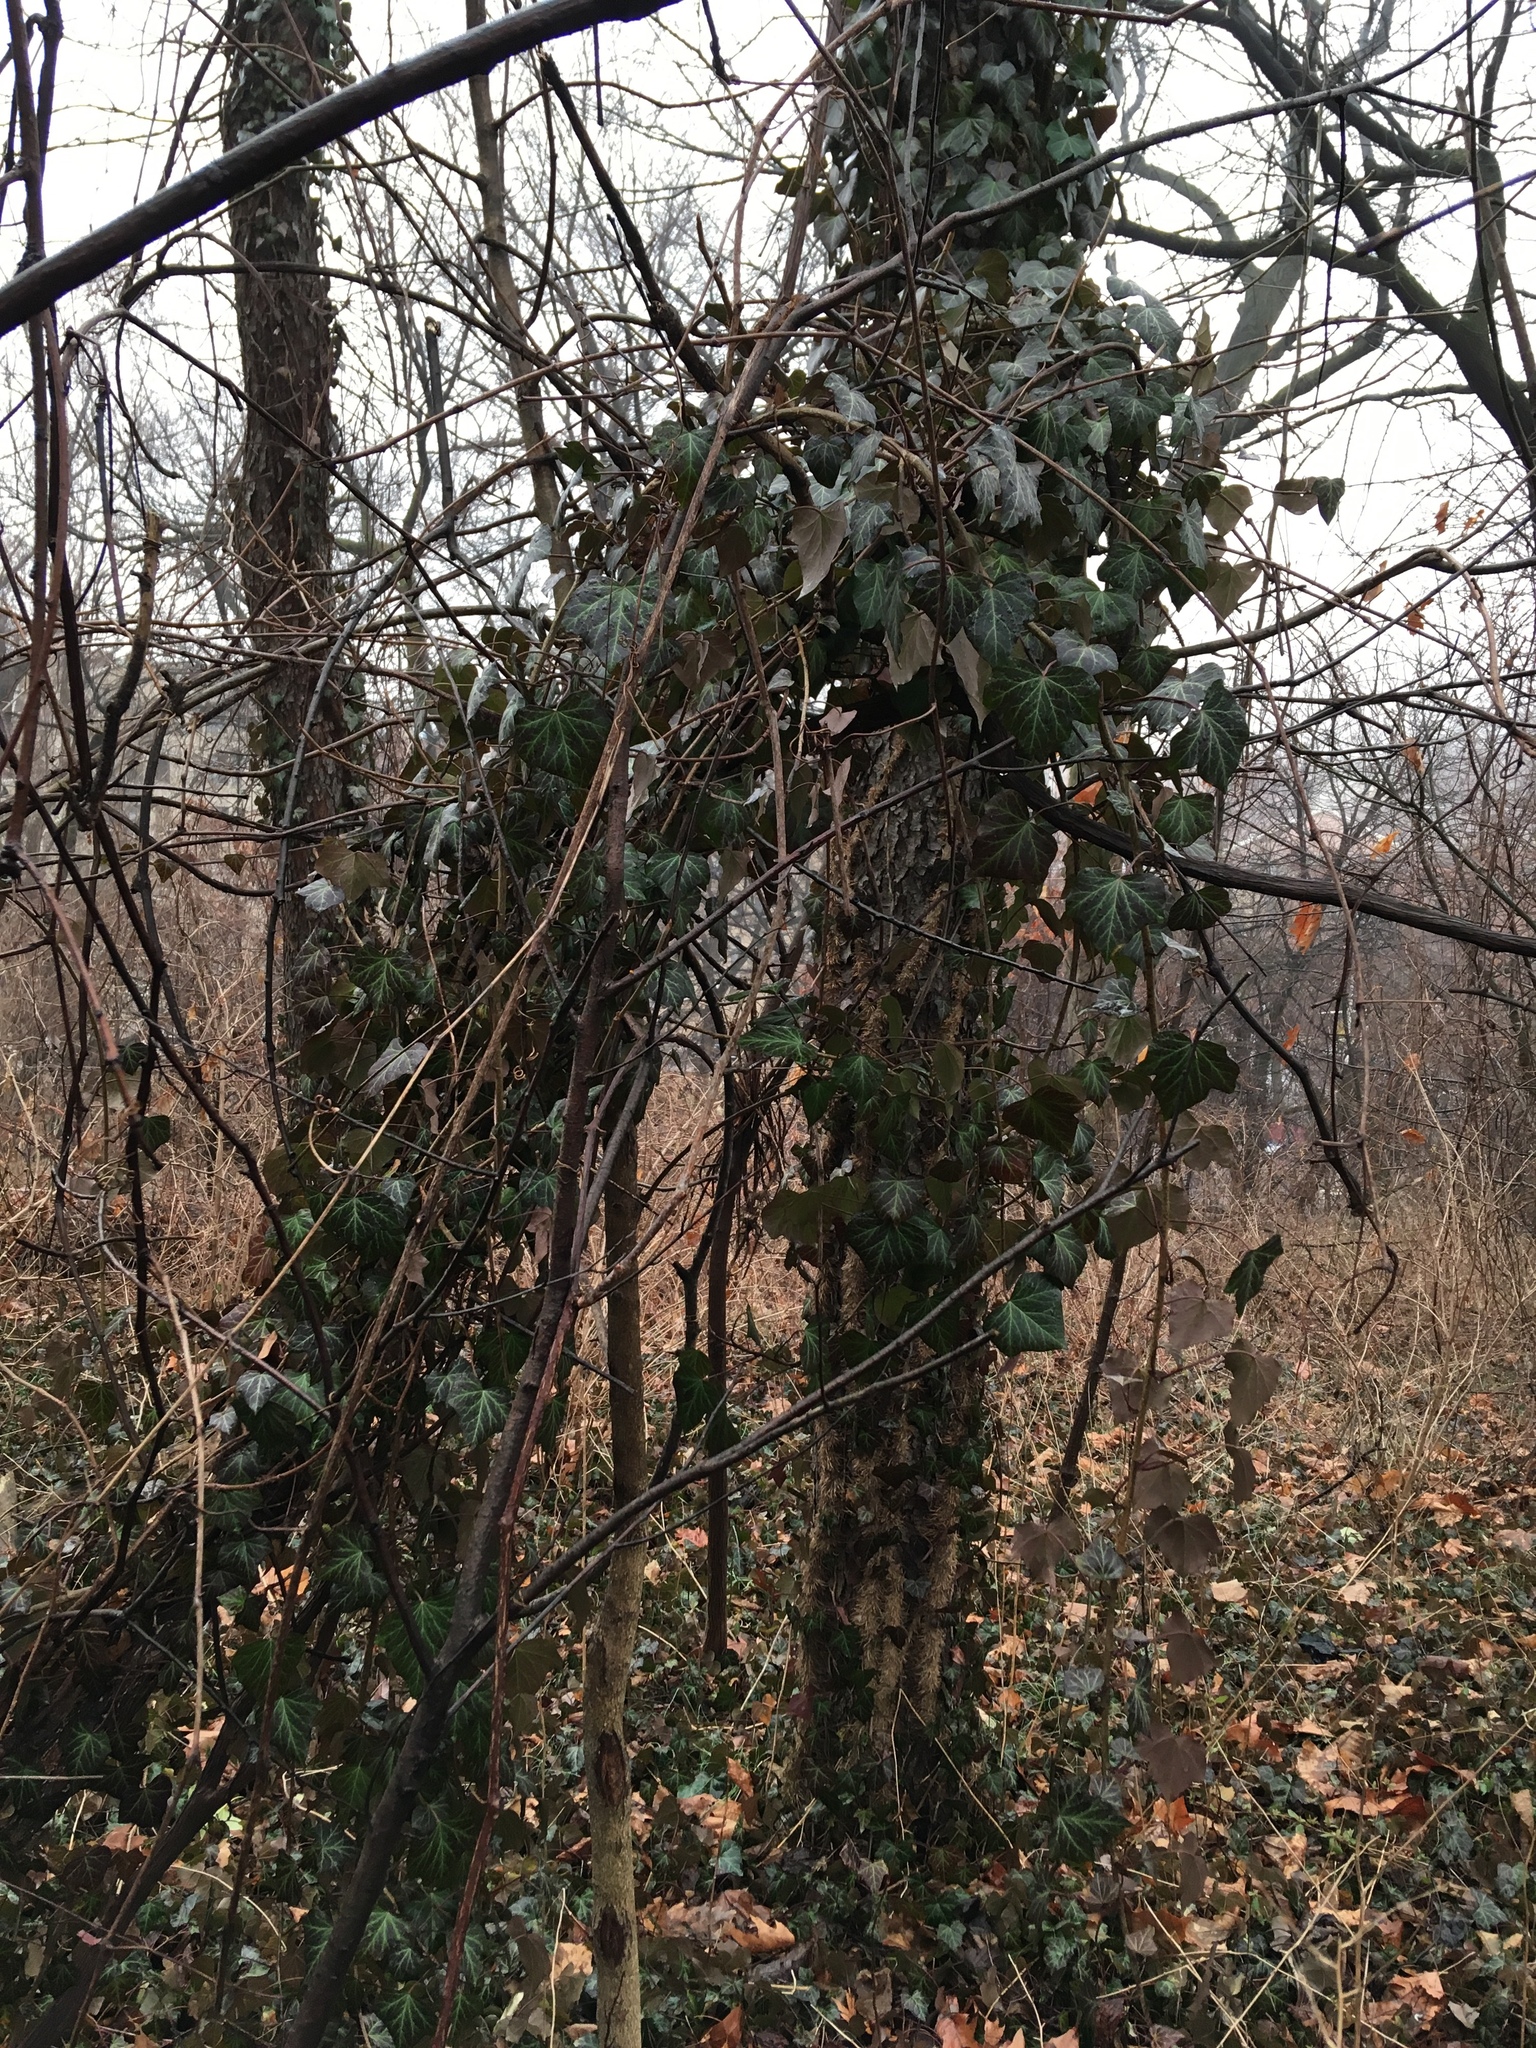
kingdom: Plantae
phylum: Tracheophyta
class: Magnoliopsida
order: Apiales
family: Araliaceae
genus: Hedera
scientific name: Hedera helix
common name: Ivy
